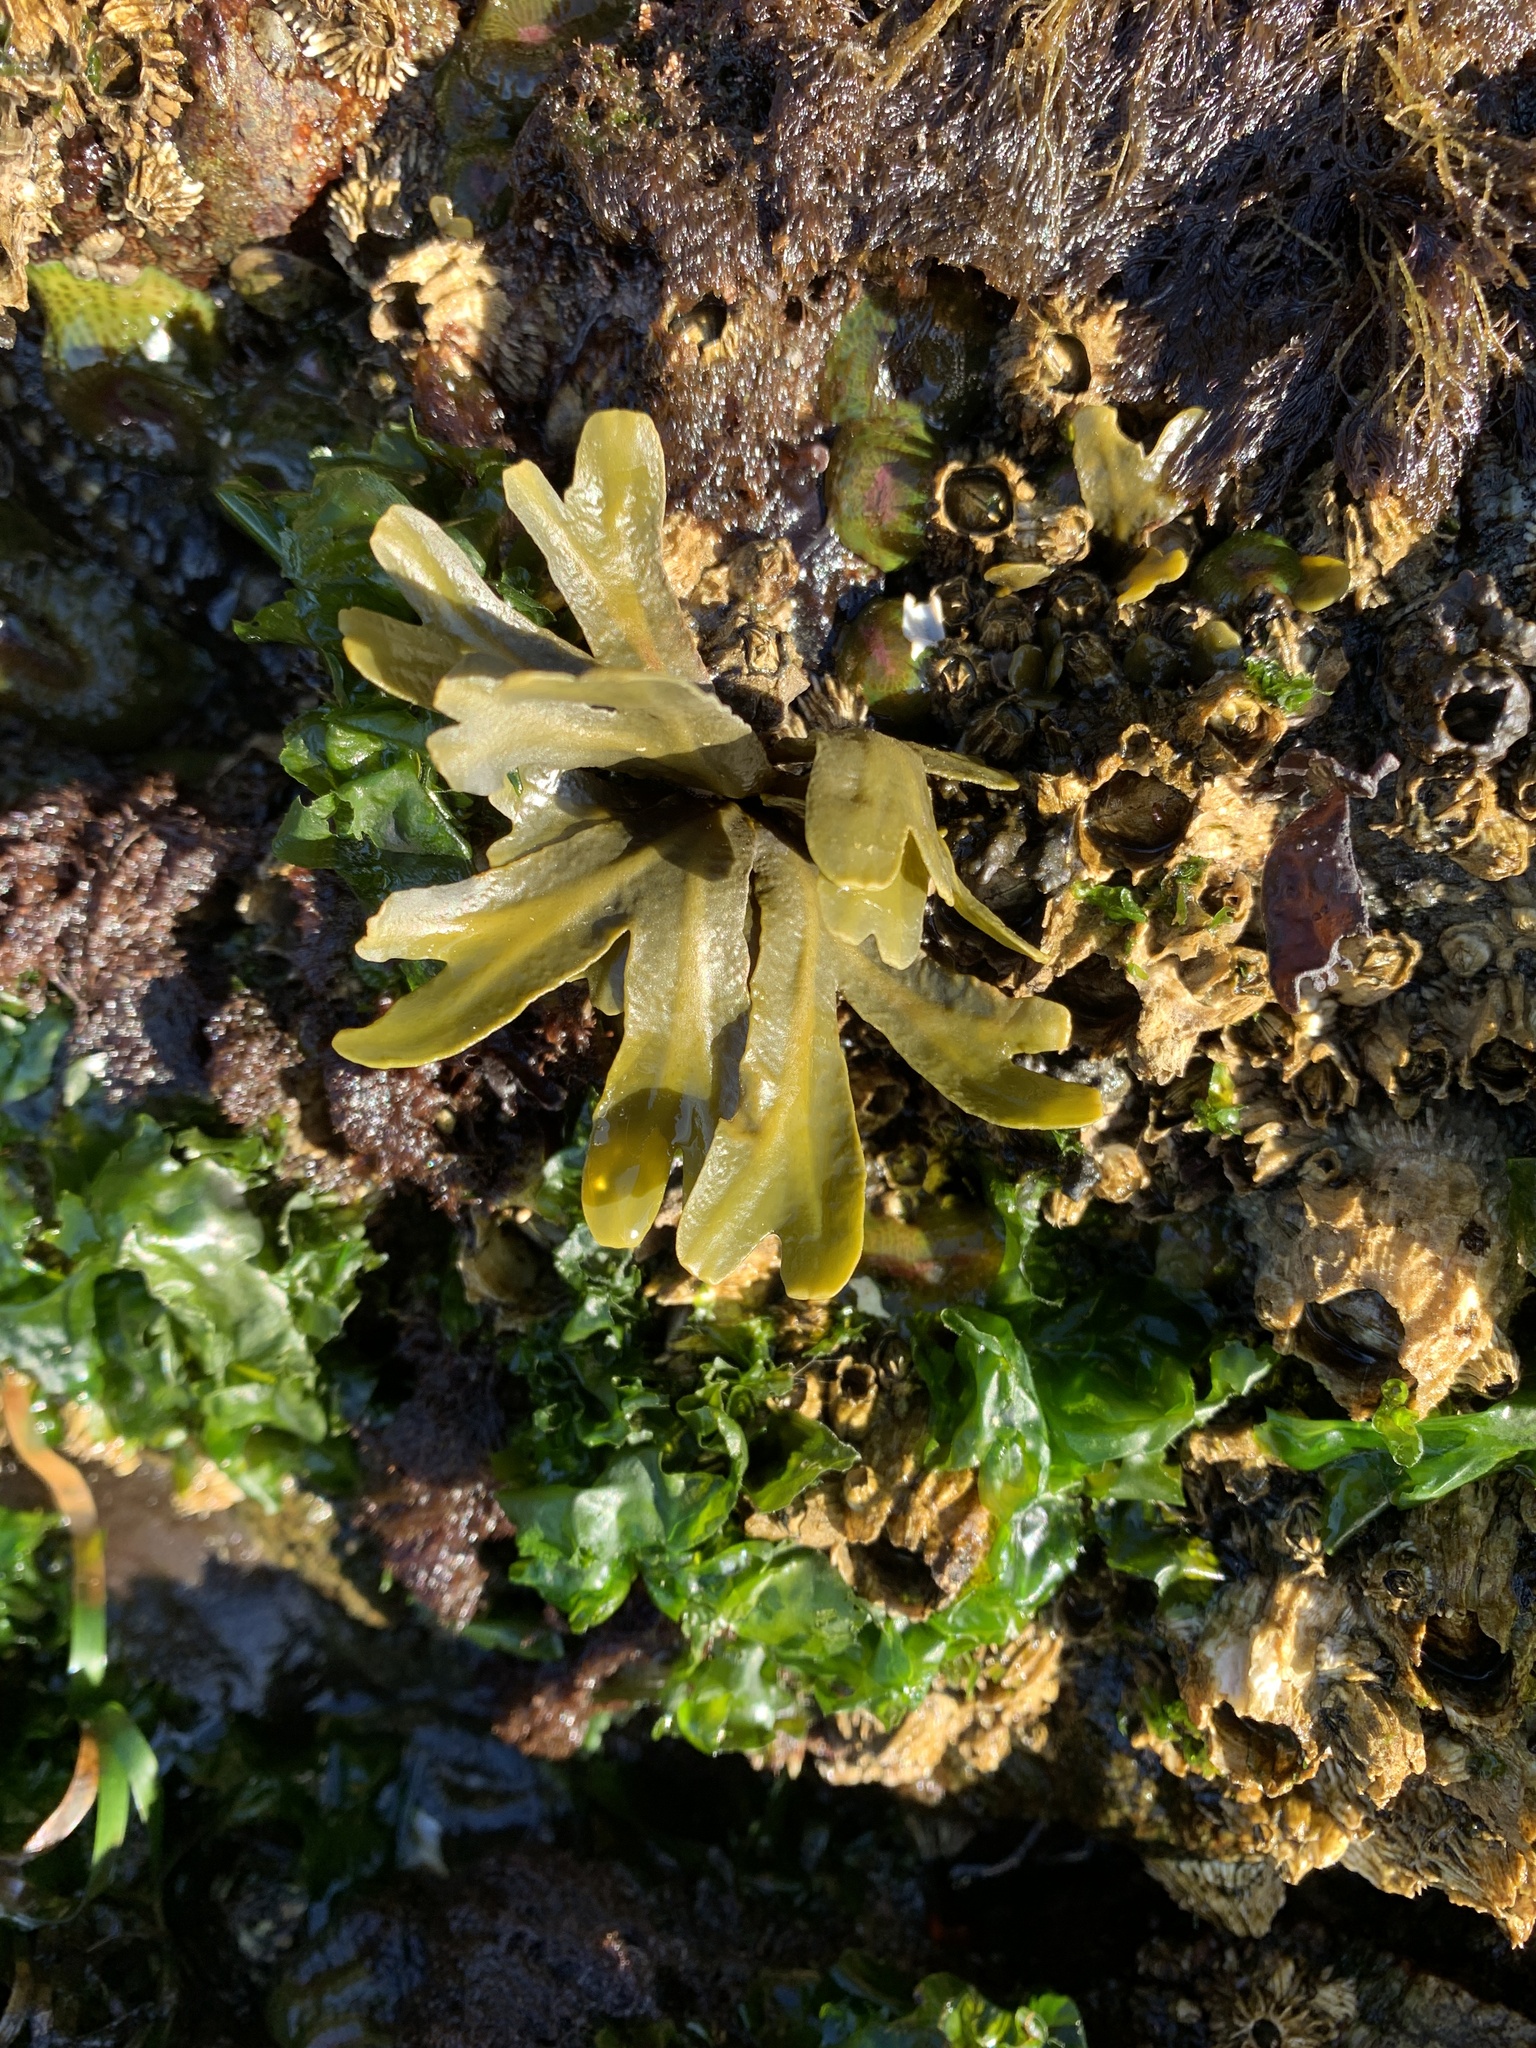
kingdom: Chromista
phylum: Ochrophyta
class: Phaeophyceae
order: Fucales
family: Fucaceae
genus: Fucus
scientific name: Fucus distichus
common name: Rockweed
